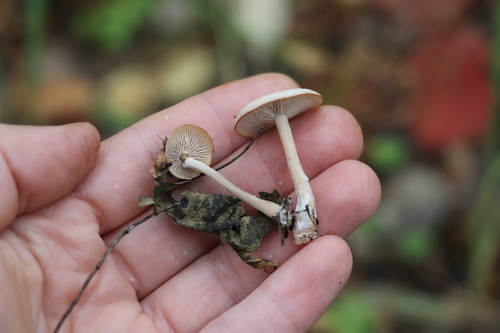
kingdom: Fungi
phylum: Basidiomycota
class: Agaricomycetes
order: Agaricales
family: Tricholomataceae
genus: Clitocybe
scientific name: Clitocybe
